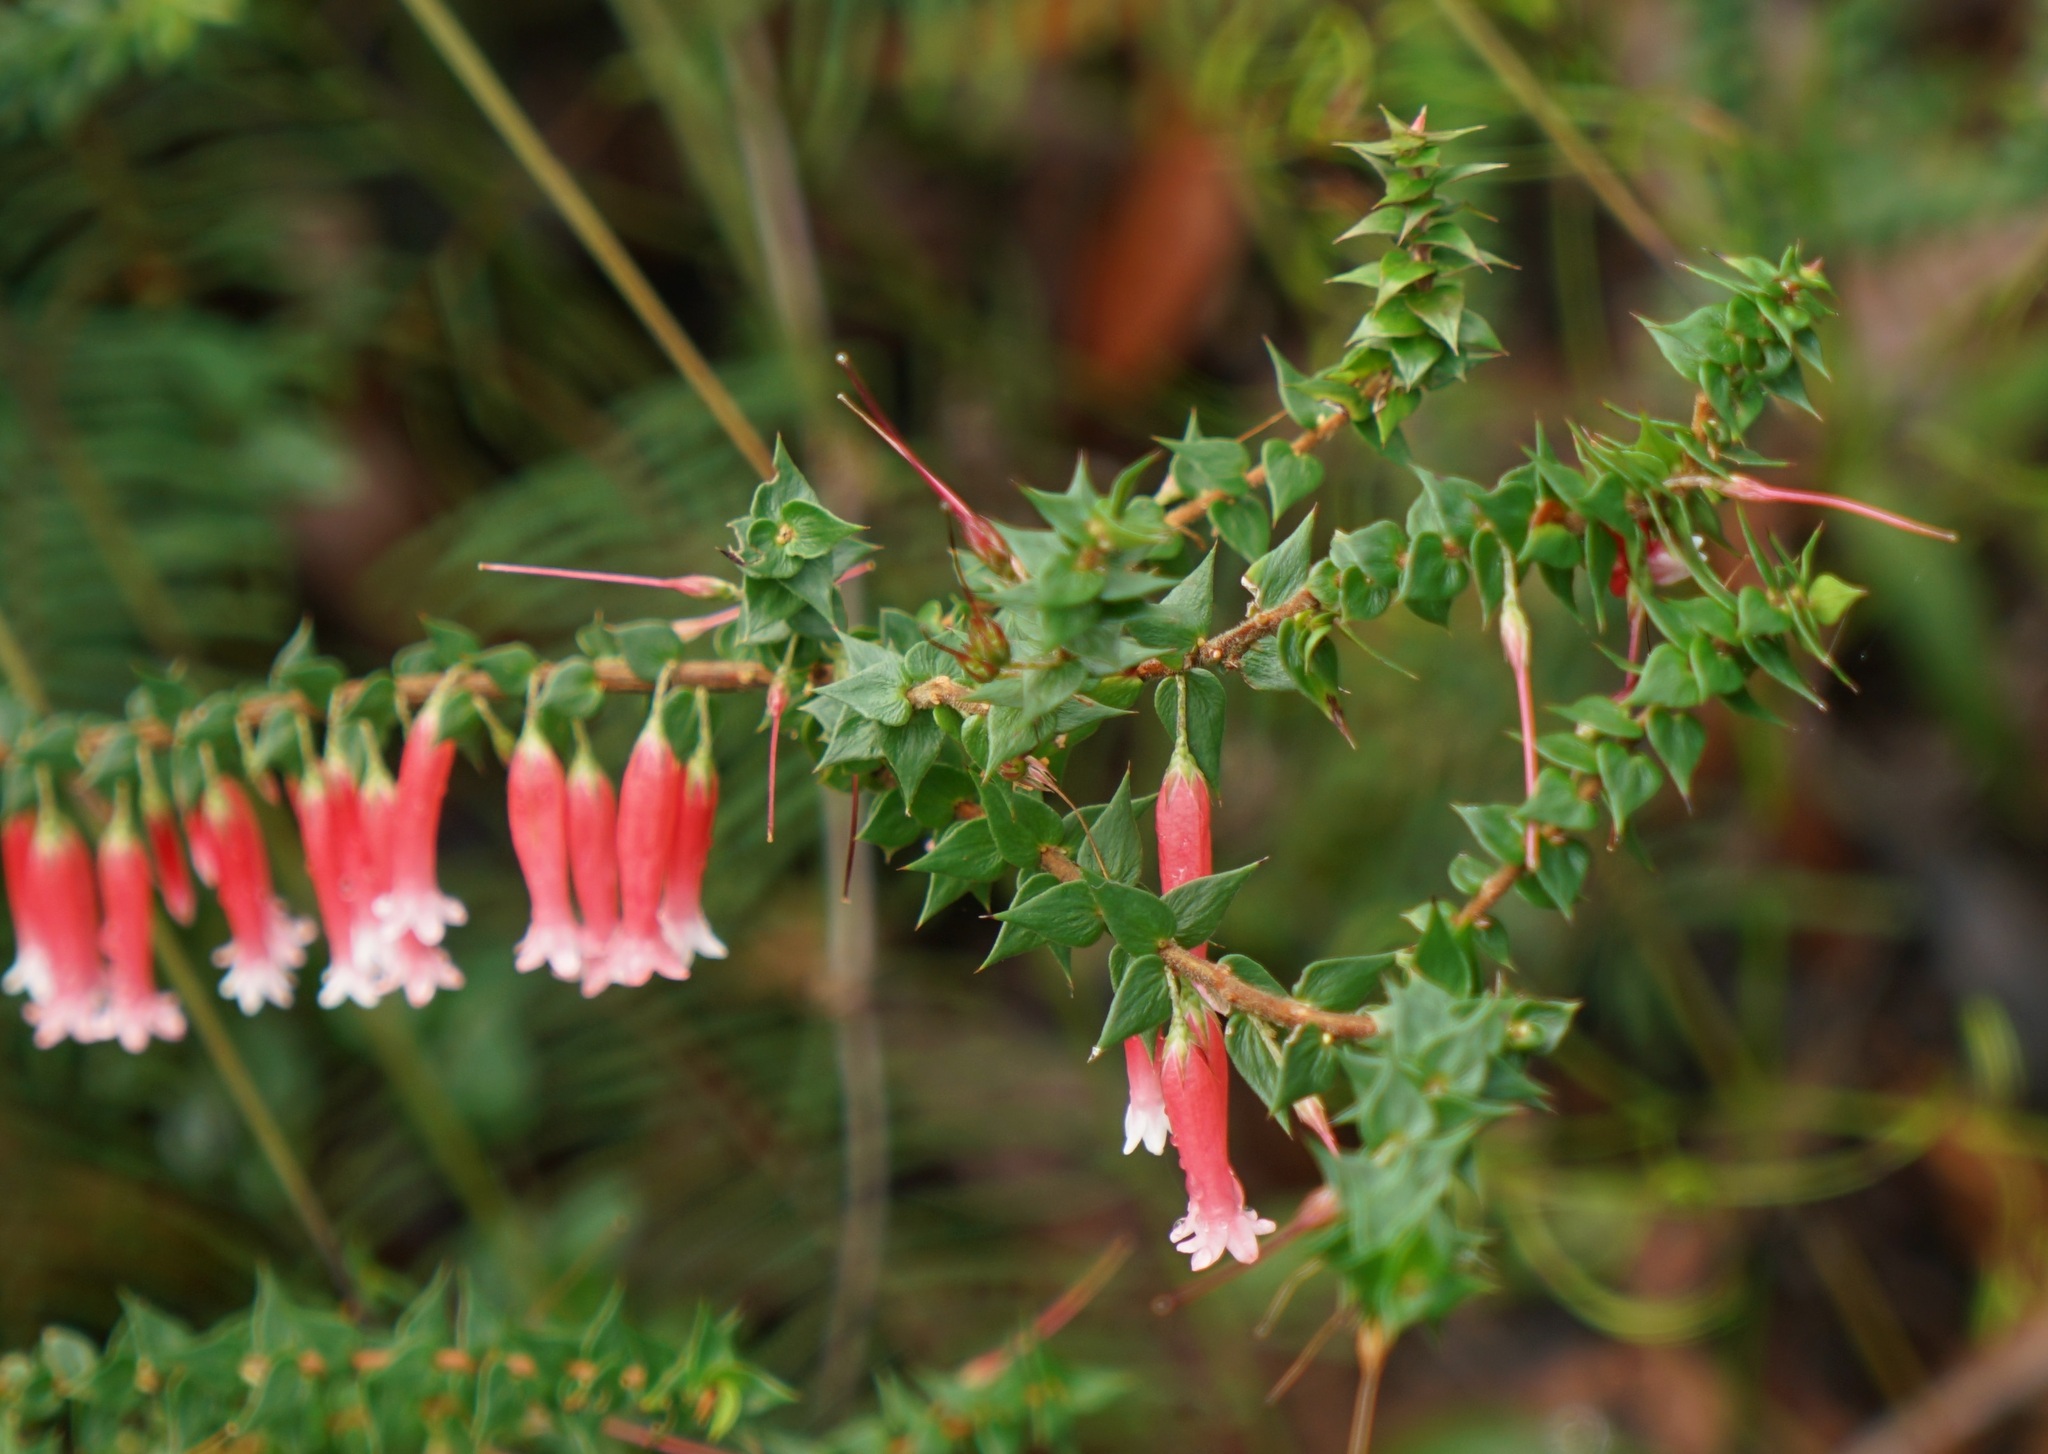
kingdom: Plantae
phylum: Tracheophyta
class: Magnoliopsida
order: Ericales
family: Ericaceae
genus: Epacris
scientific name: Epacris longiflora
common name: Fuchsia-heath
